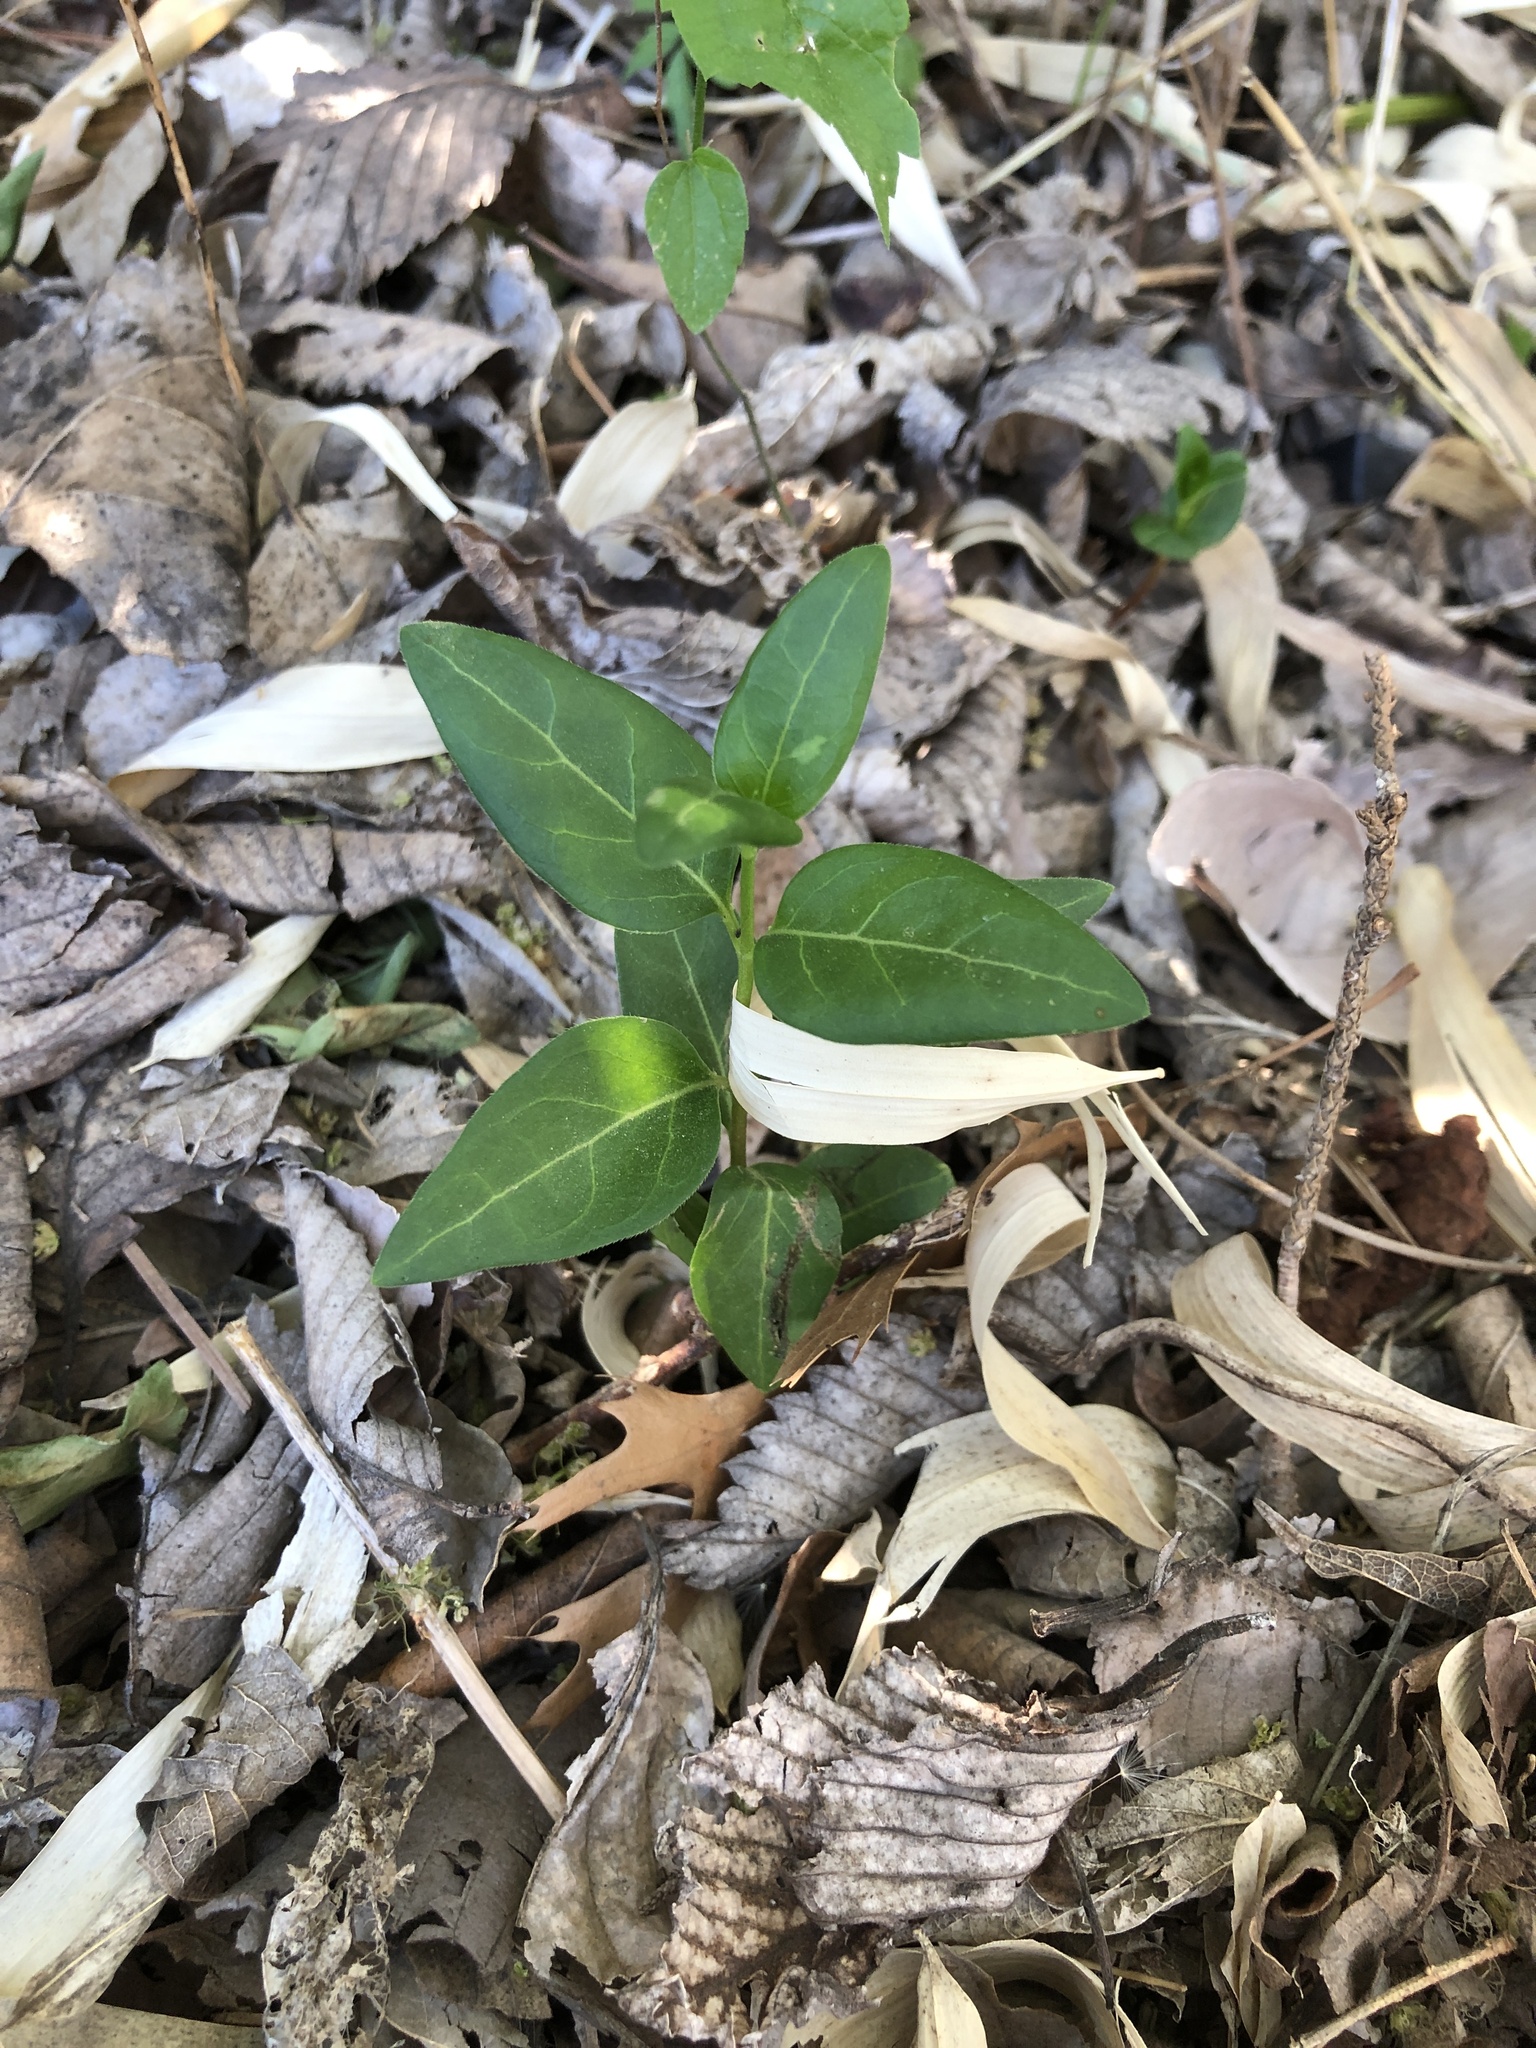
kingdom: Plantae
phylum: Tracheophyta
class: Magnoliopsida
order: Gentianales
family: Apocynaceae
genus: Vinca
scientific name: Vinca major
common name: Greater periwinkle
